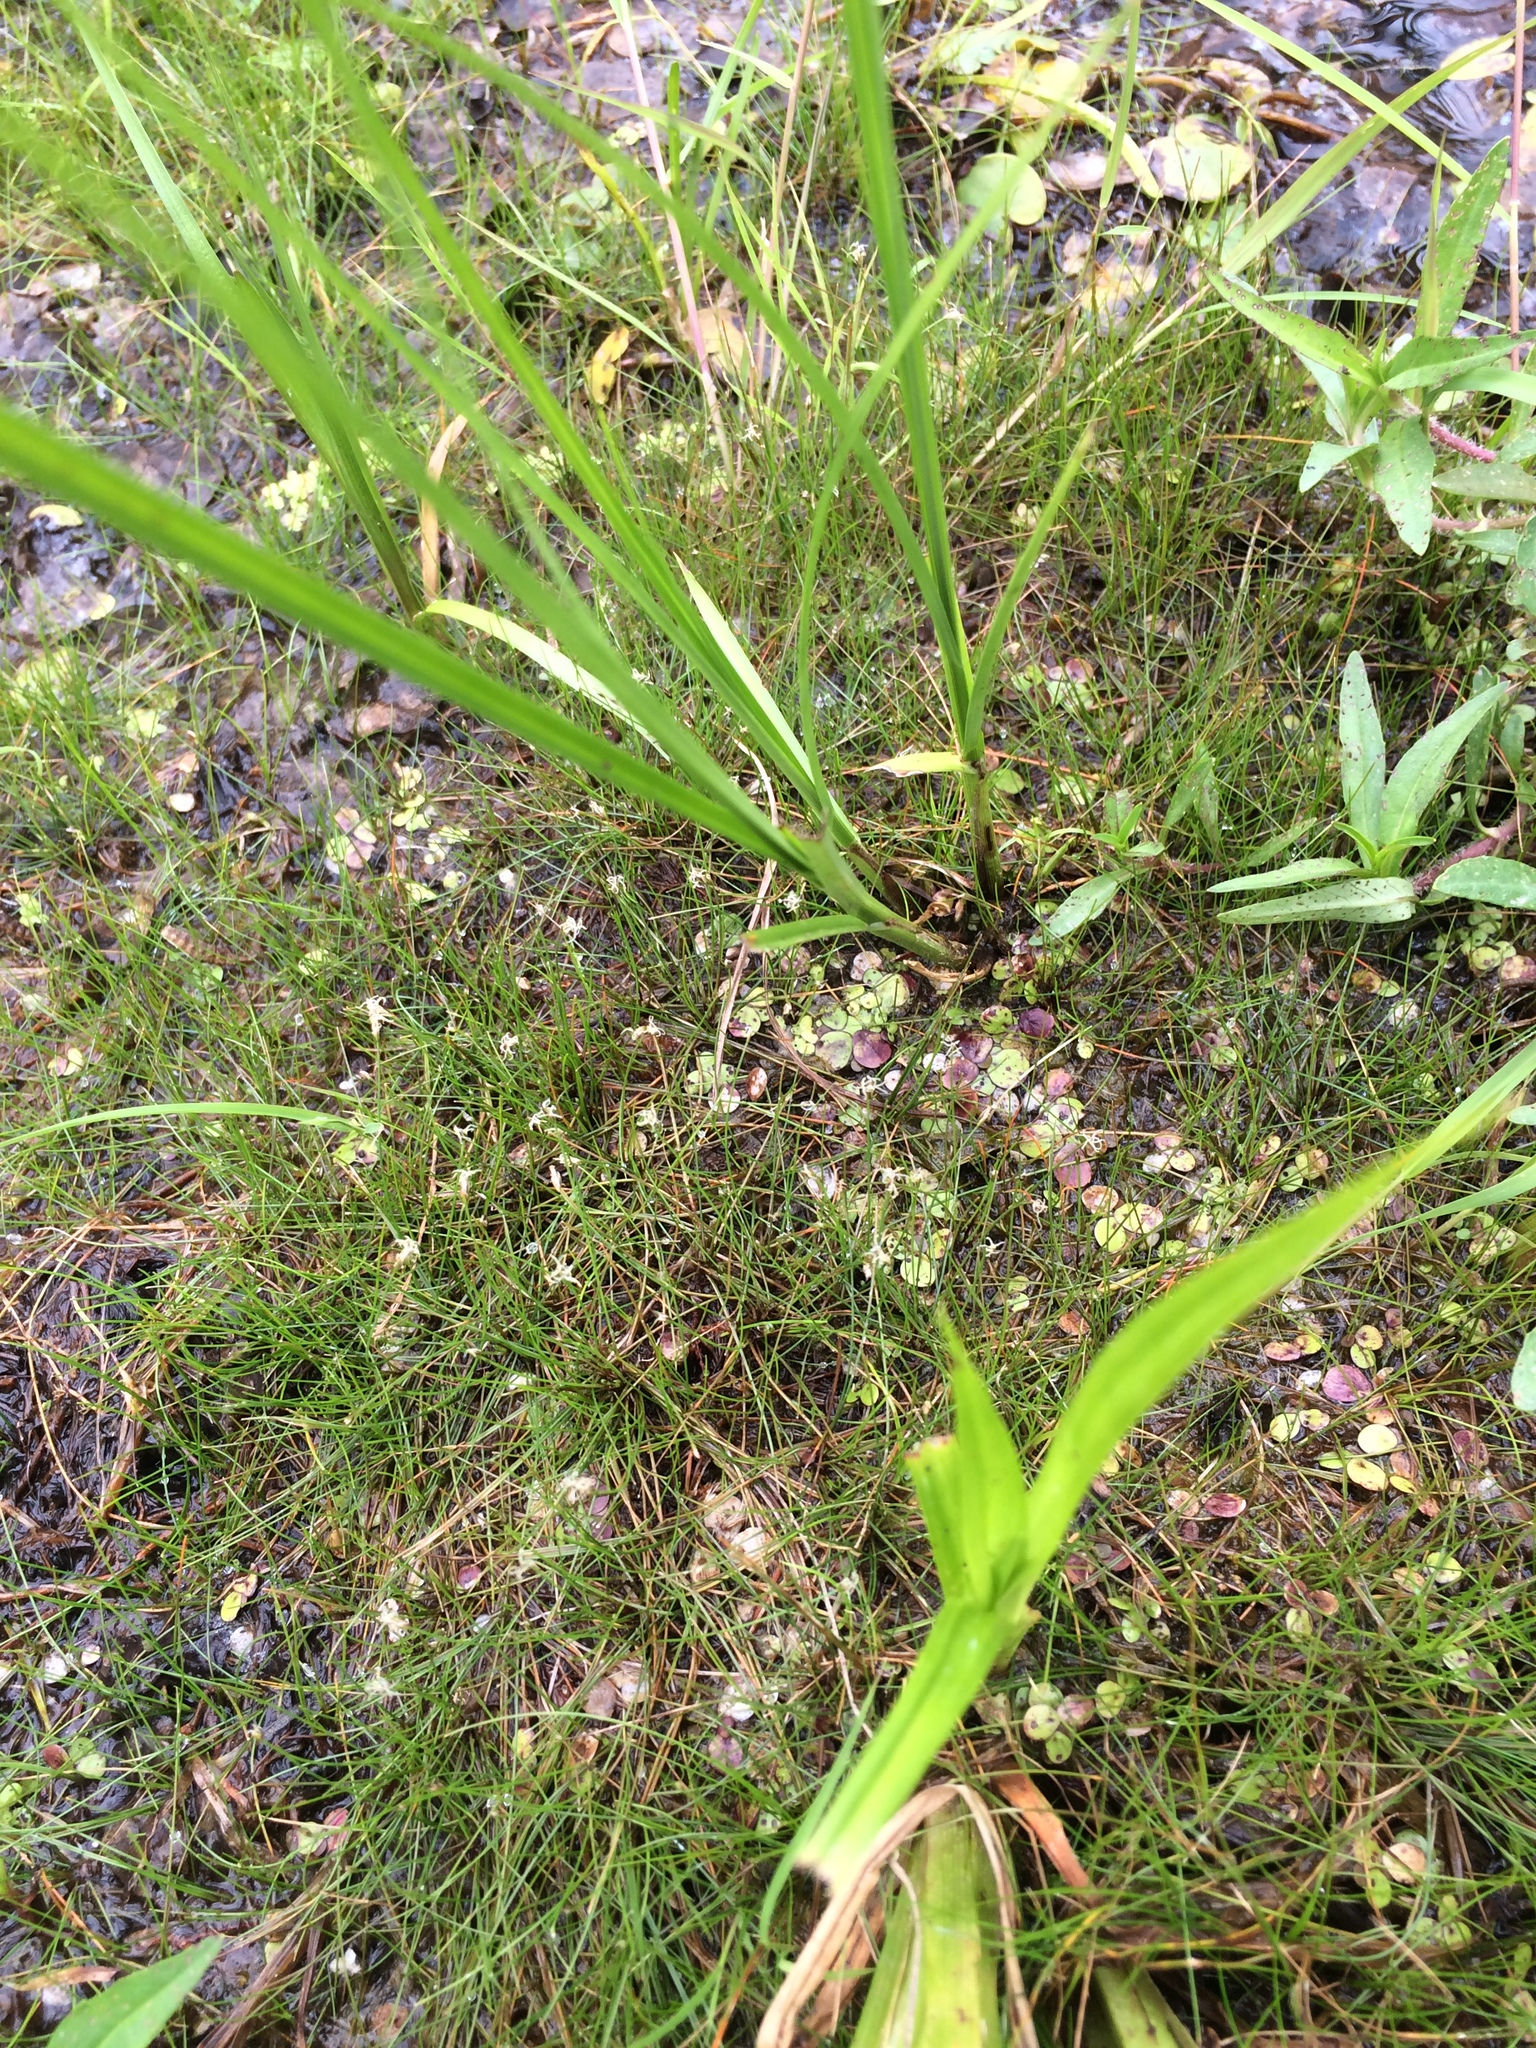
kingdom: Plantae
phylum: Tracheophyta
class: Liliopsida
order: Poales
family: Cyperaceae
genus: Eleocharis
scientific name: Eleocharis acicularis
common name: Needle spike-rush
